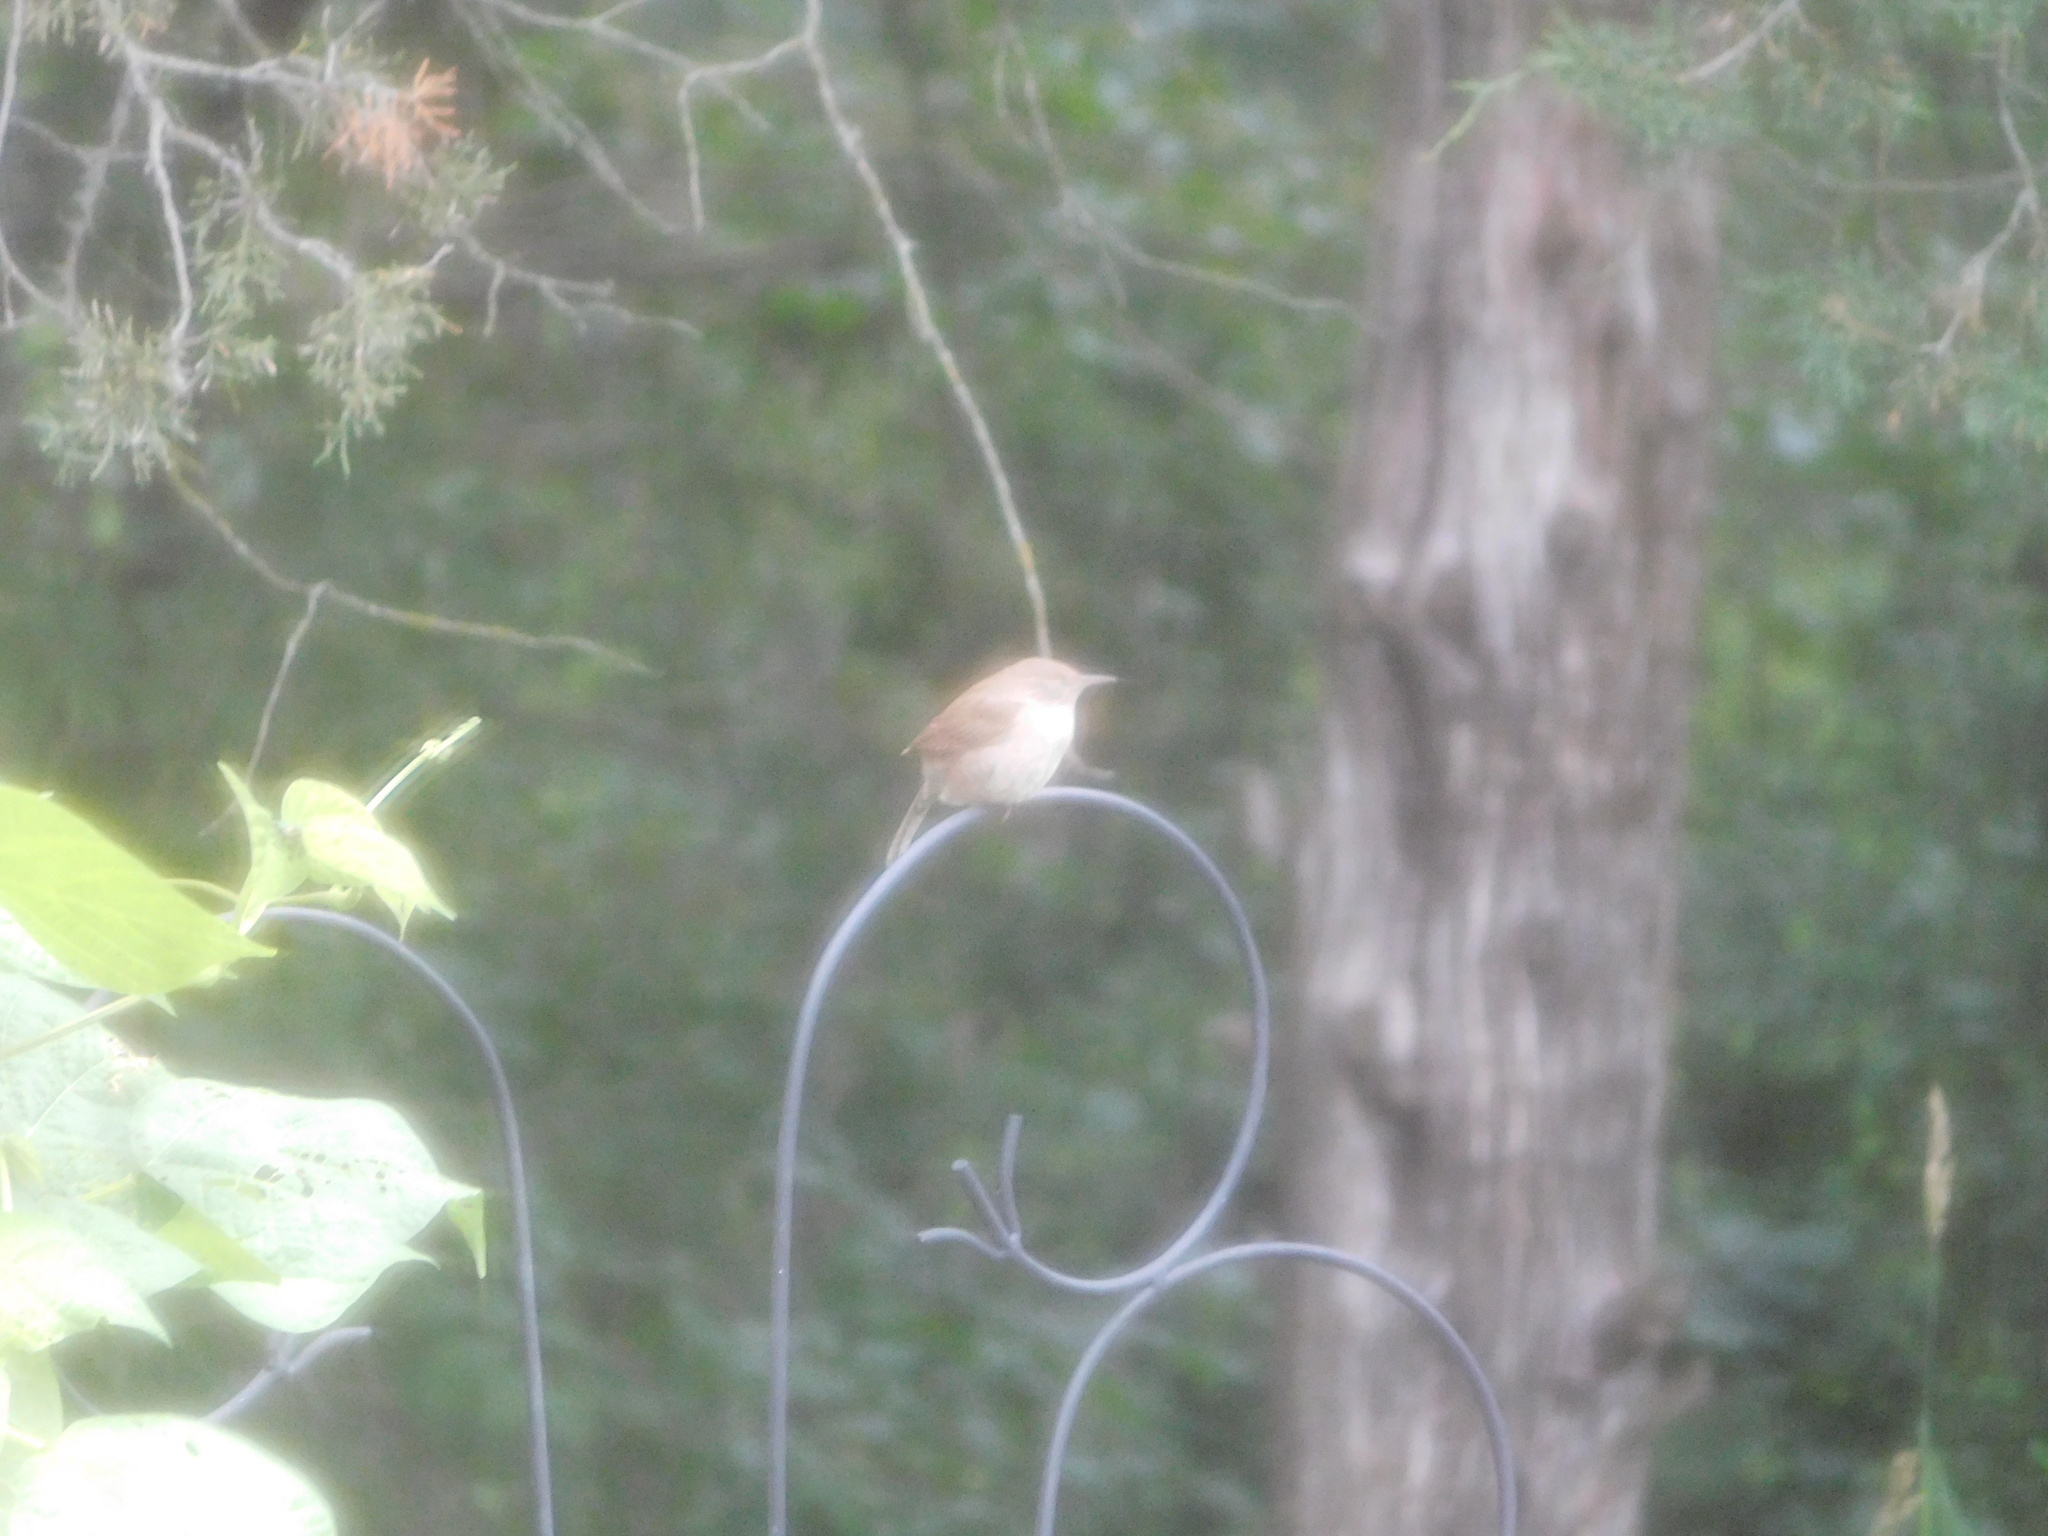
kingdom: Animalia
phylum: Chordata
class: Aves
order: Passeriformes
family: Troglodytidae
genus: Troglodytes
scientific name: Troglodytes aedon
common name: House wren
